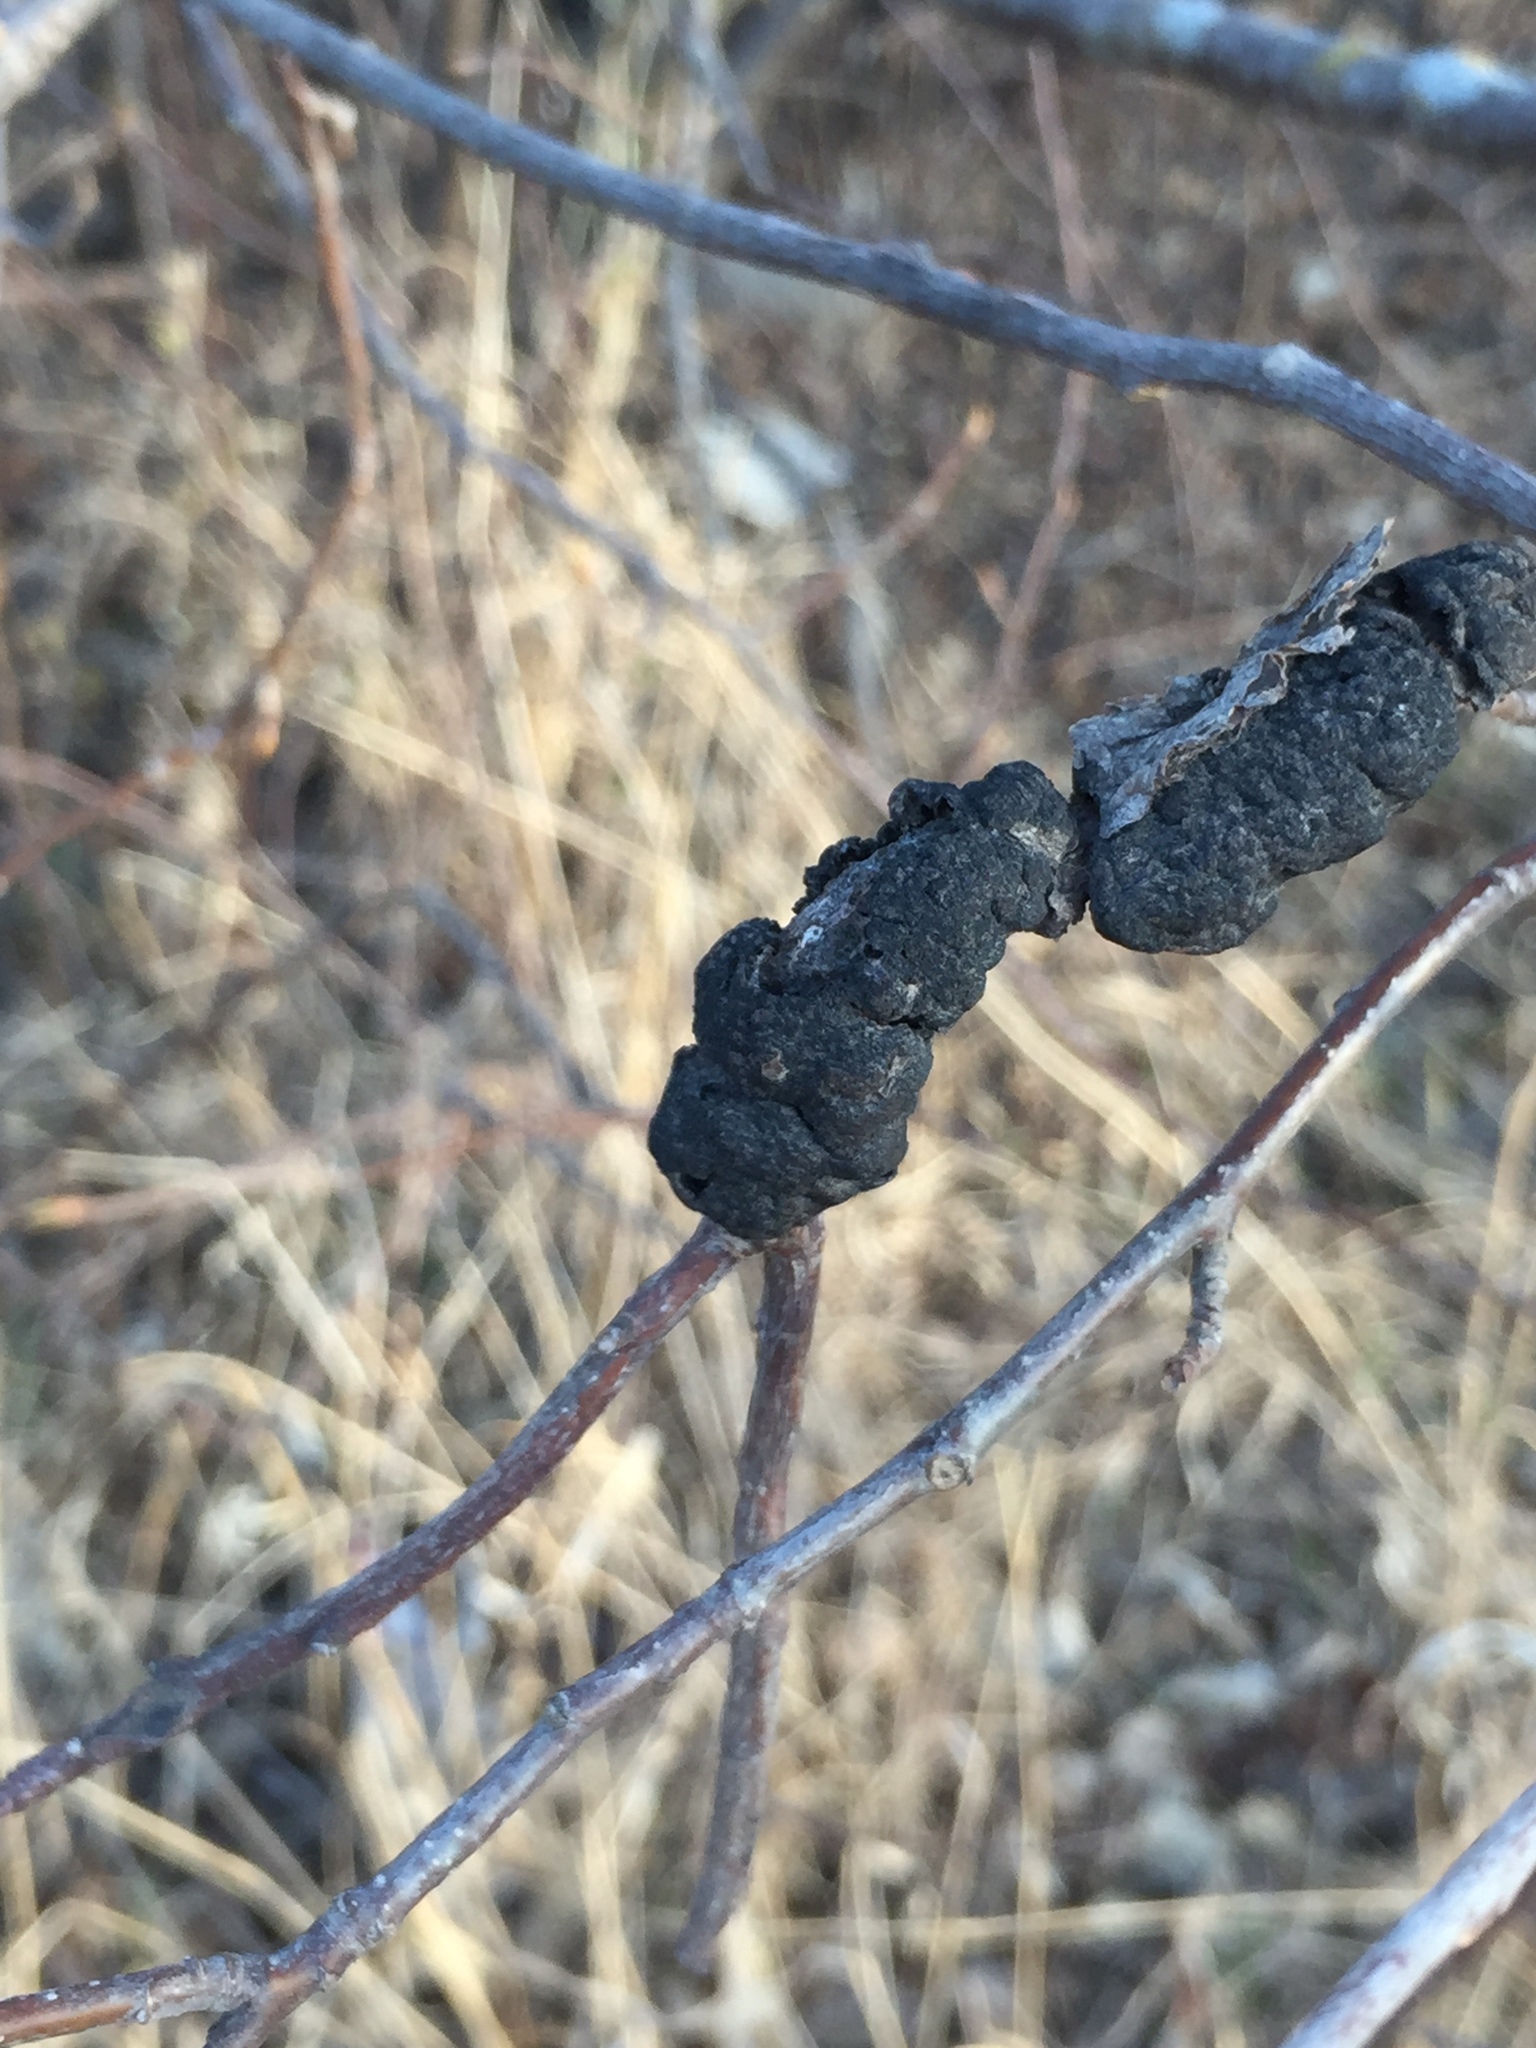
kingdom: Fungi
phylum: Ascomycota
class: Dothideomycetes
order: Venturiales
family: Venturiaceae
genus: Apiosporina
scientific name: Apiosporina morbosa
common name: Black knot
